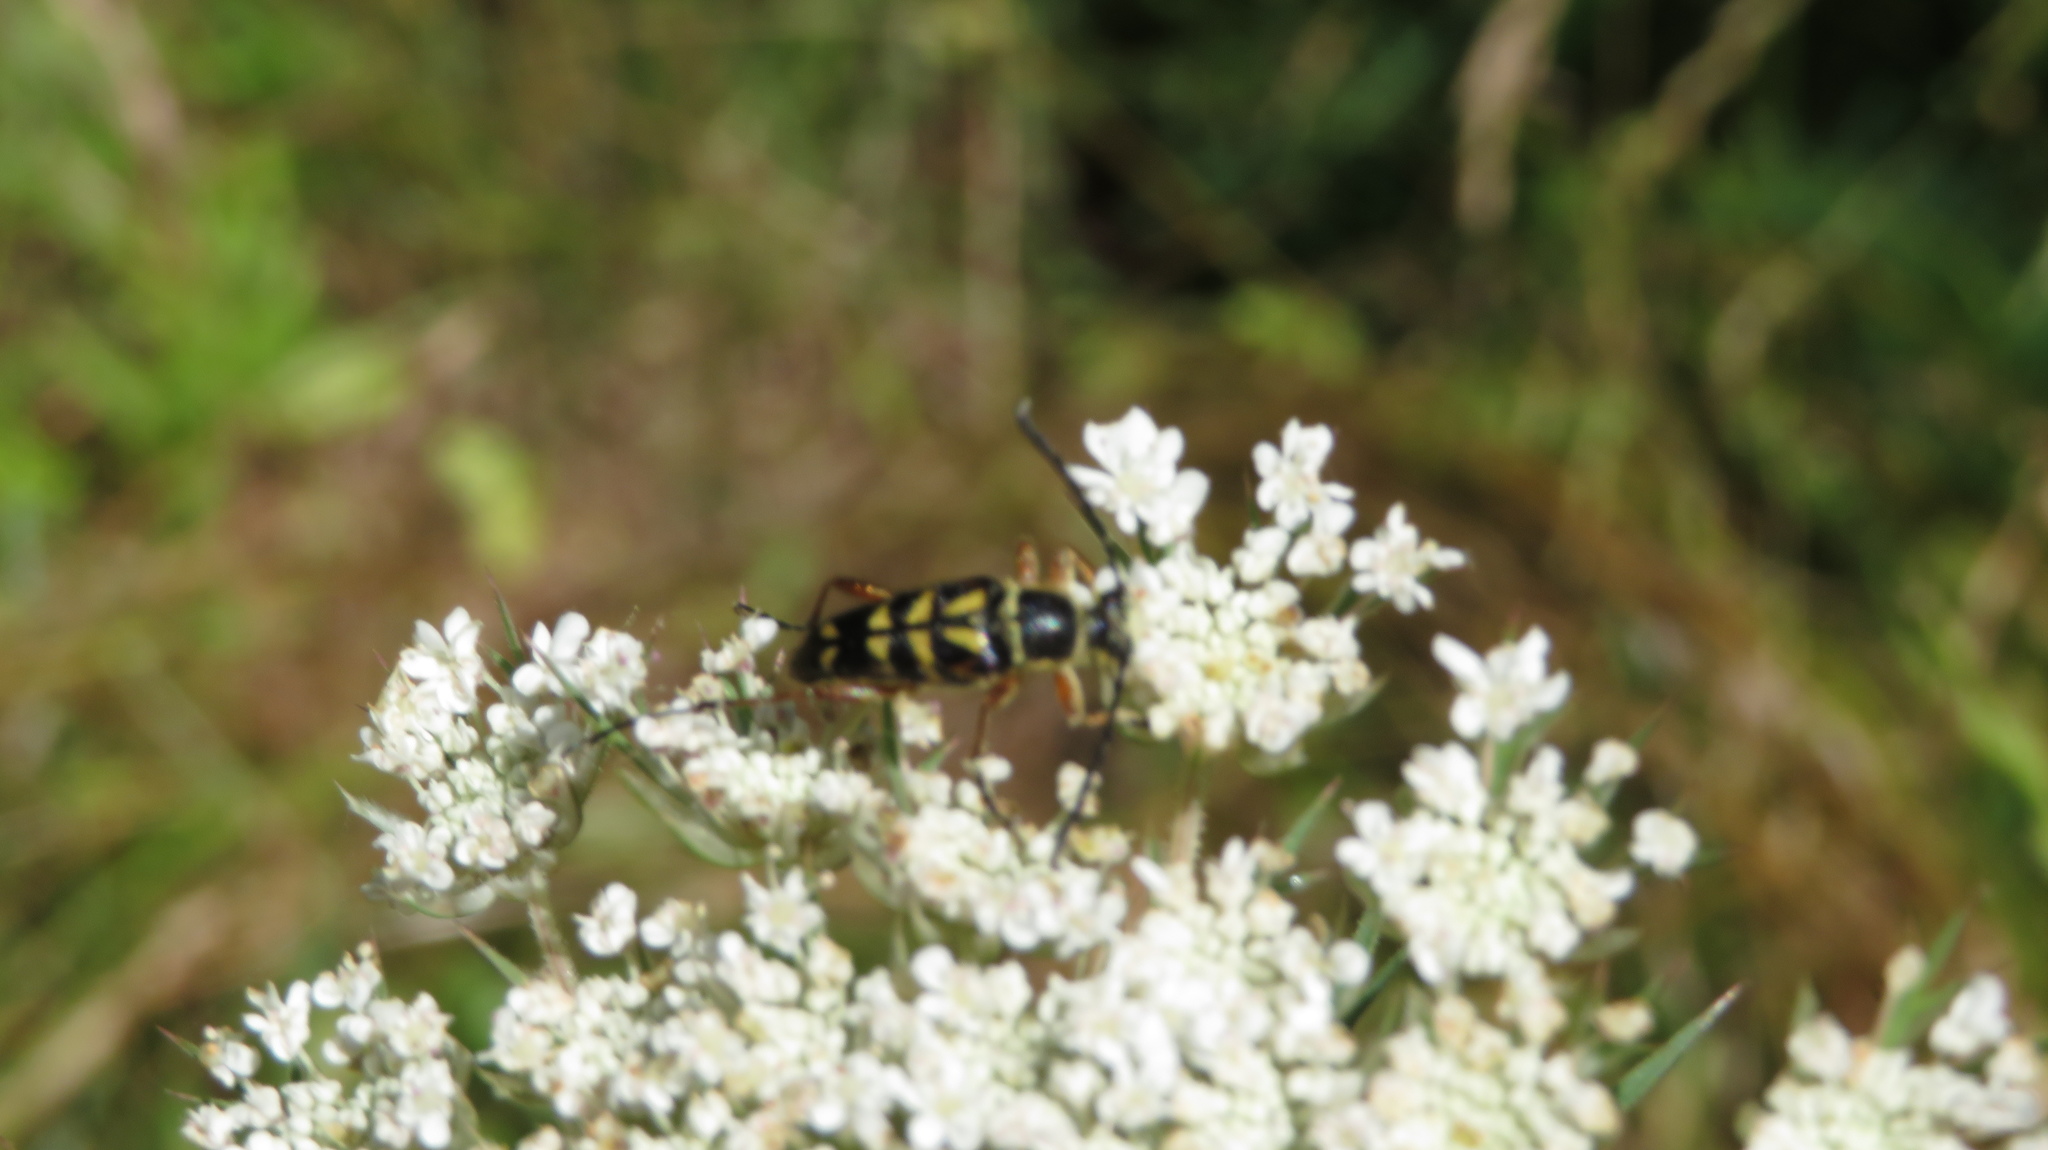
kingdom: Animalia
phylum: Arthropoda
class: Insecta
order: Coleoptera
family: Cerambycidae
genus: Typocerus
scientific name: Typocerus zebra
